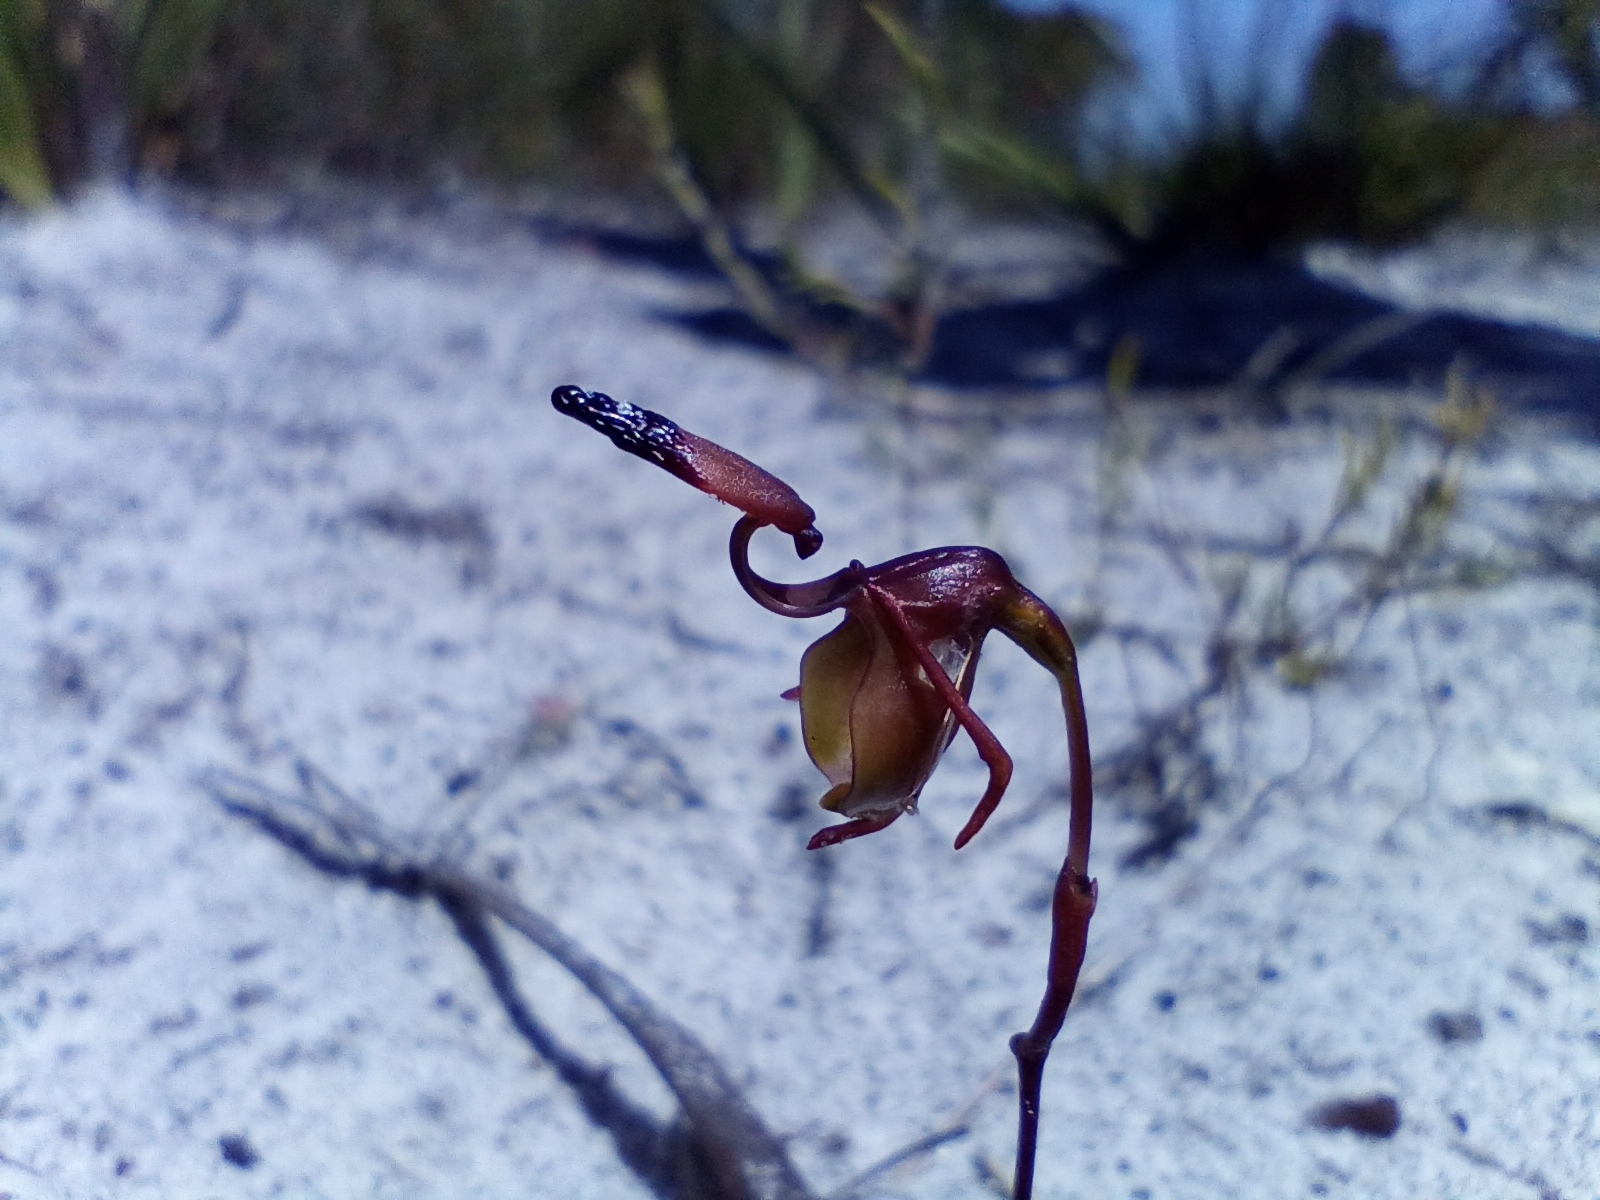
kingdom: Plantae
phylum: Tracheophyta
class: Liliopsida
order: Asparagales
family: Orchidaceae
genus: Caleana
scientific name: Caleana brockmanii
